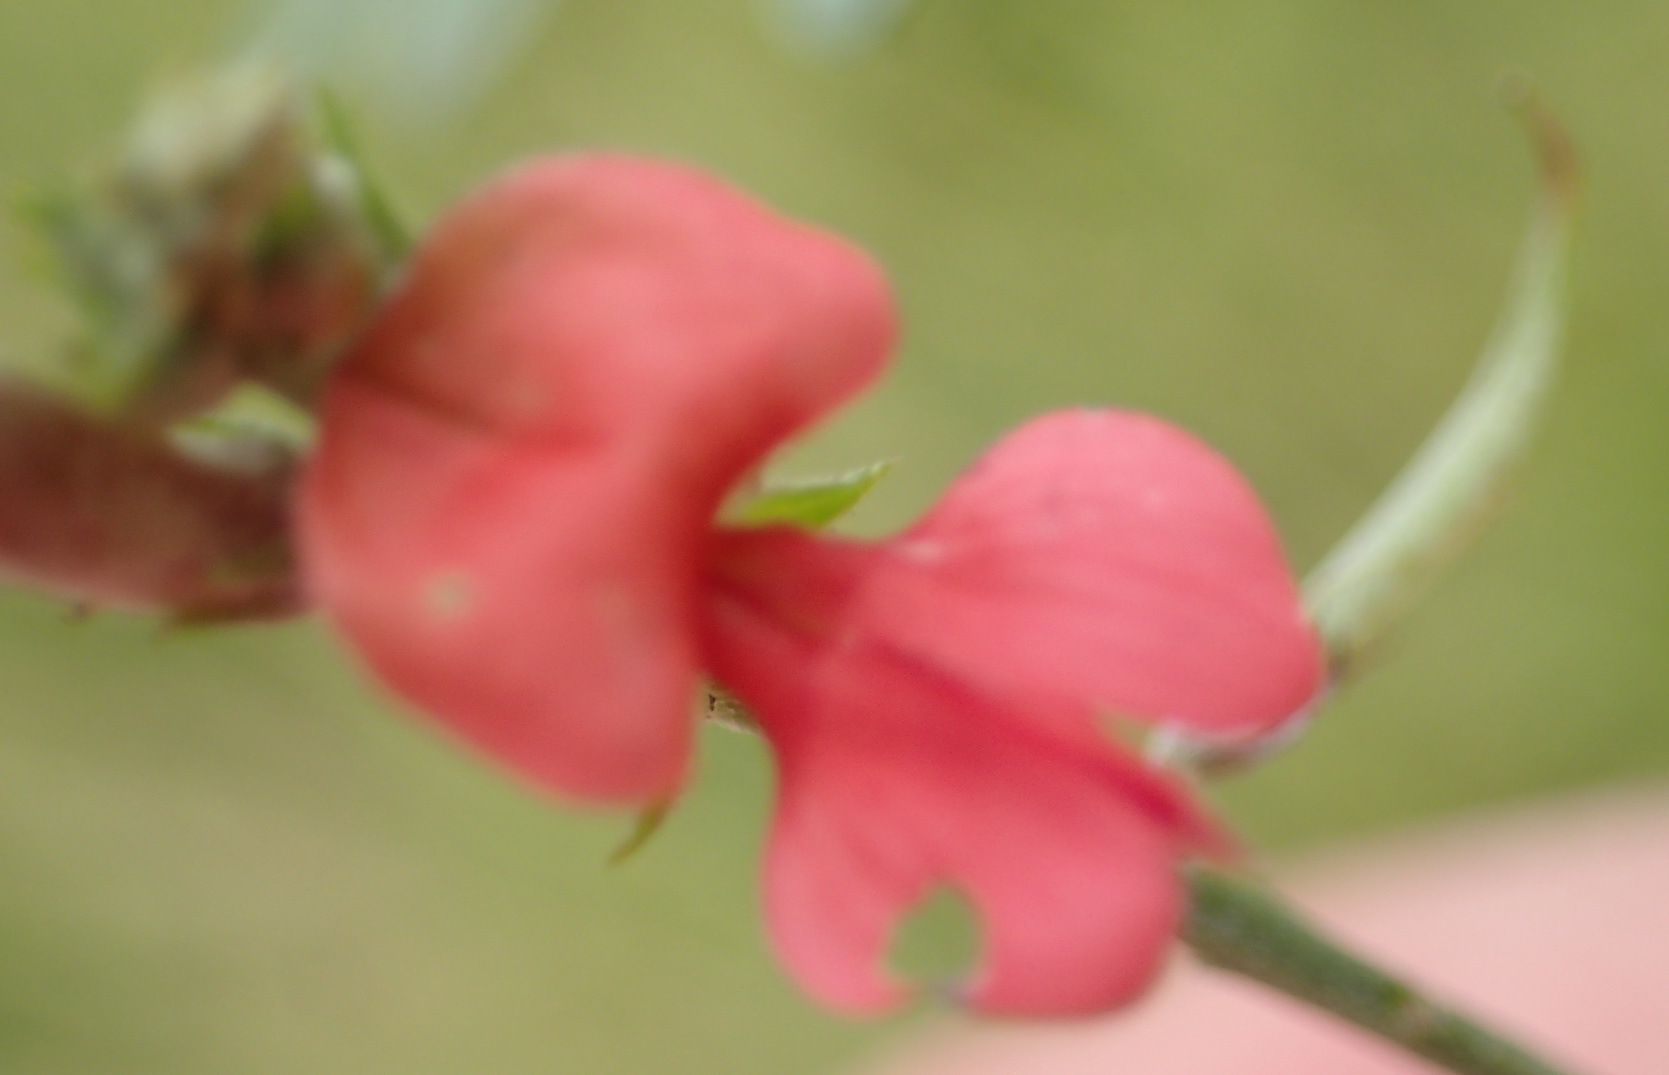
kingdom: Plantae
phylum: Tracheophyta
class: Magnoliopsida
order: Fabales
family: Fabaceae
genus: Indigofera
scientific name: Indigofera disticha
